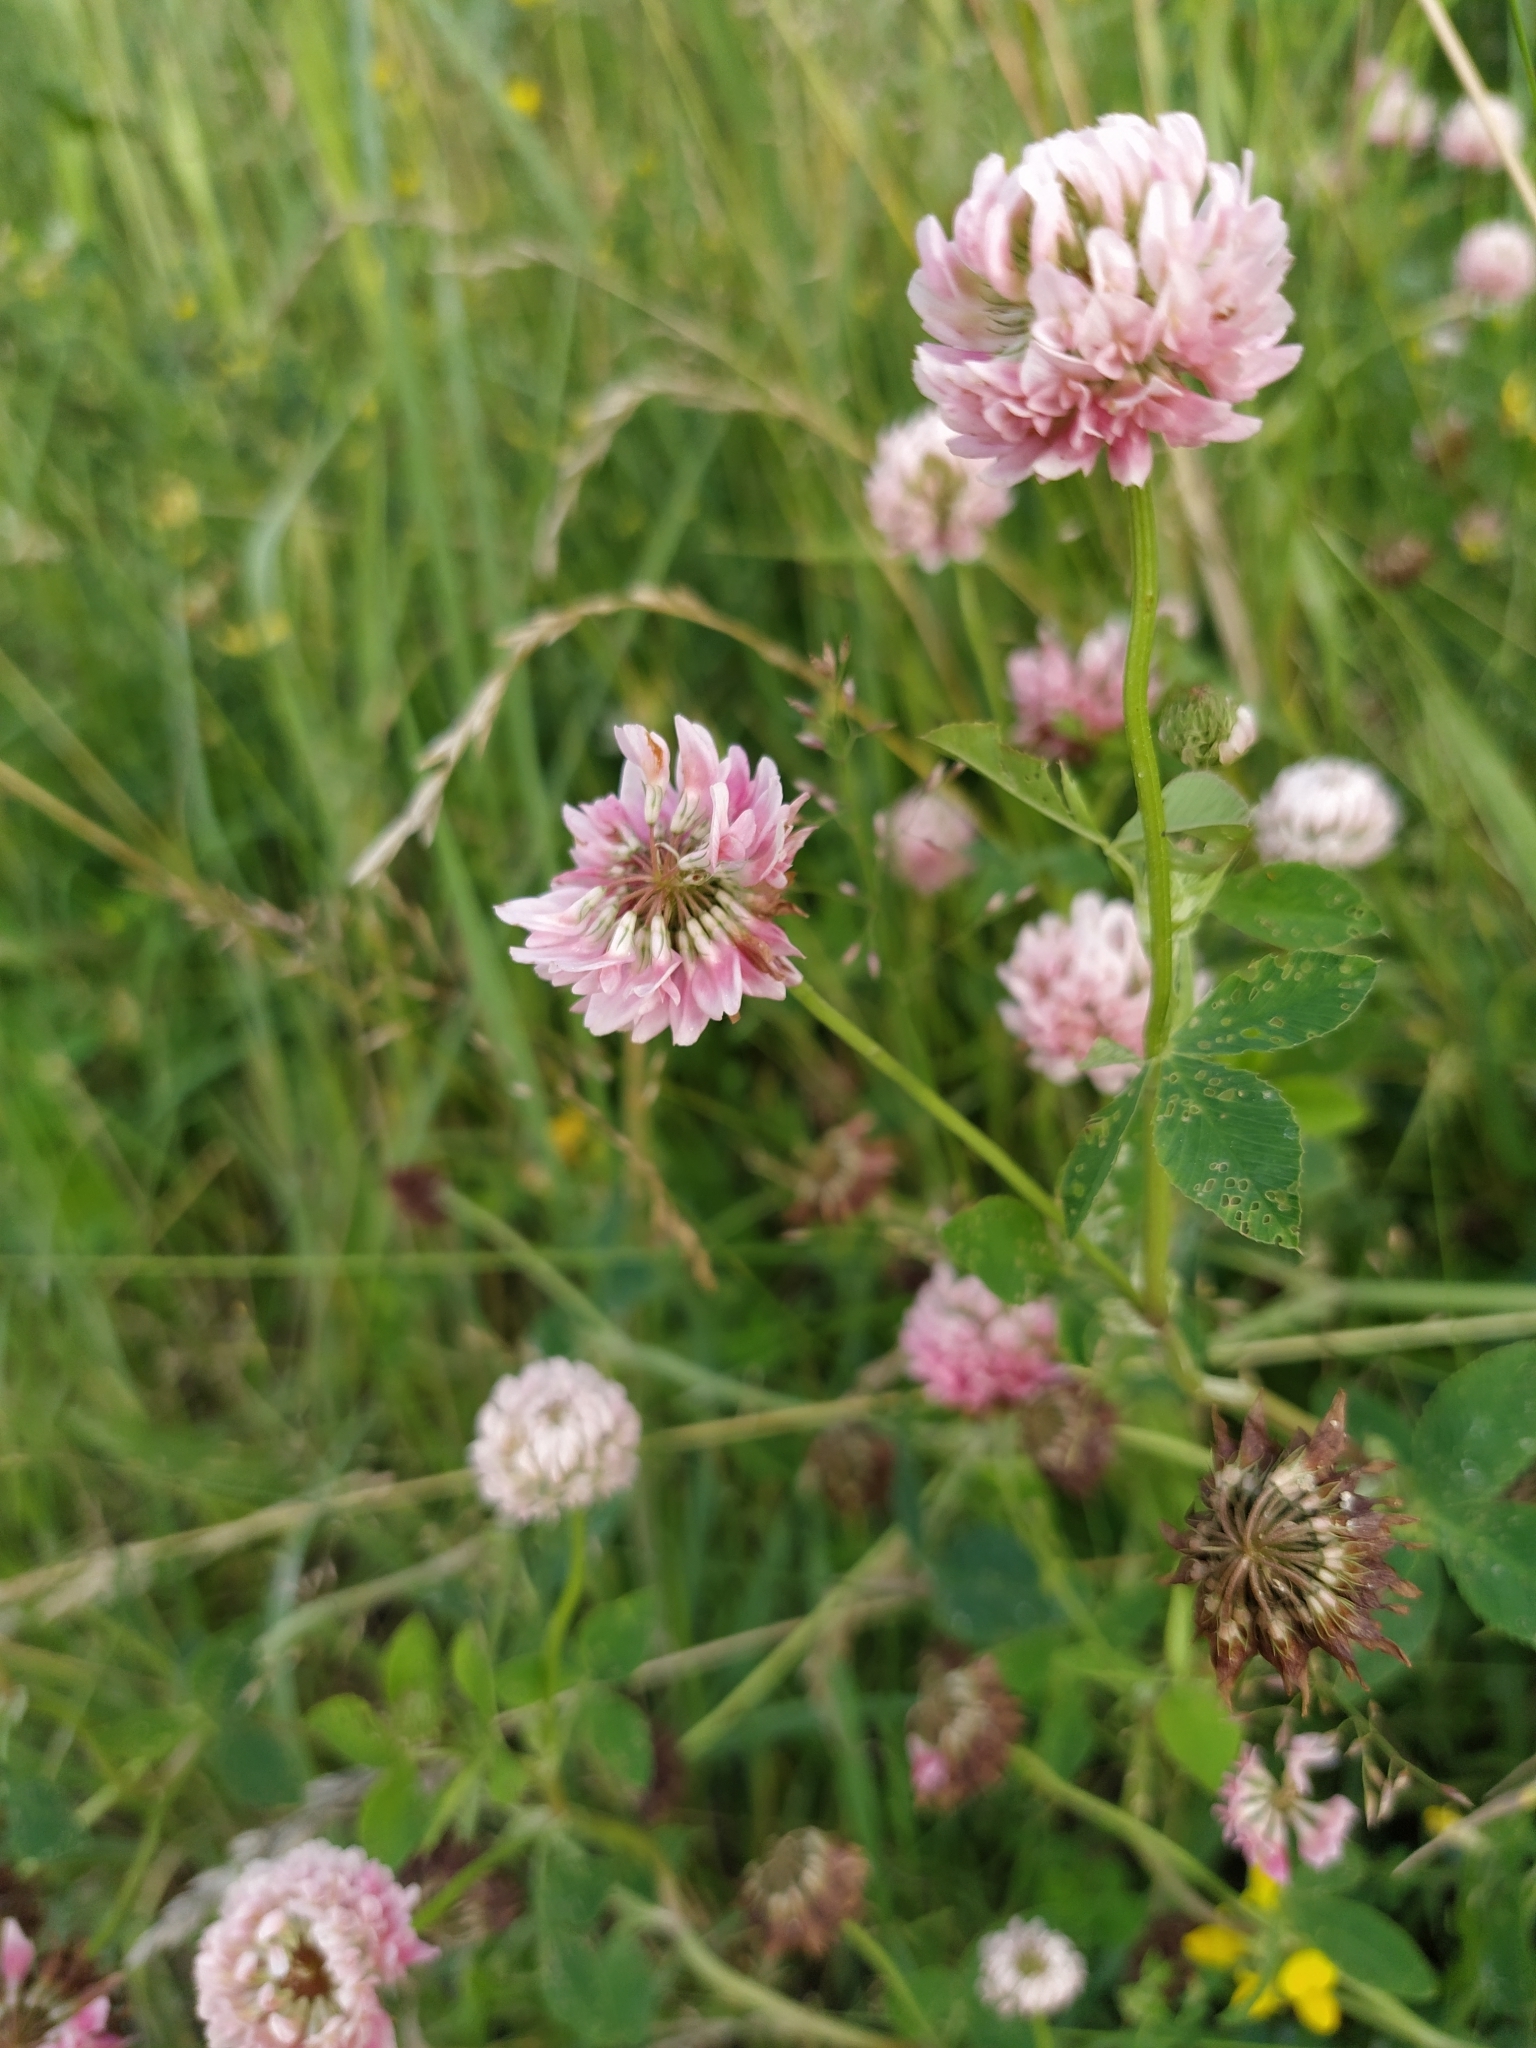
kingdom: Plantae
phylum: Tracheophyta
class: Magnoliopsida
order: Fabales
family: Fabaceae
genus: Trifolium
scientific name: Trifolium hybridum
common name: Alsike clover
